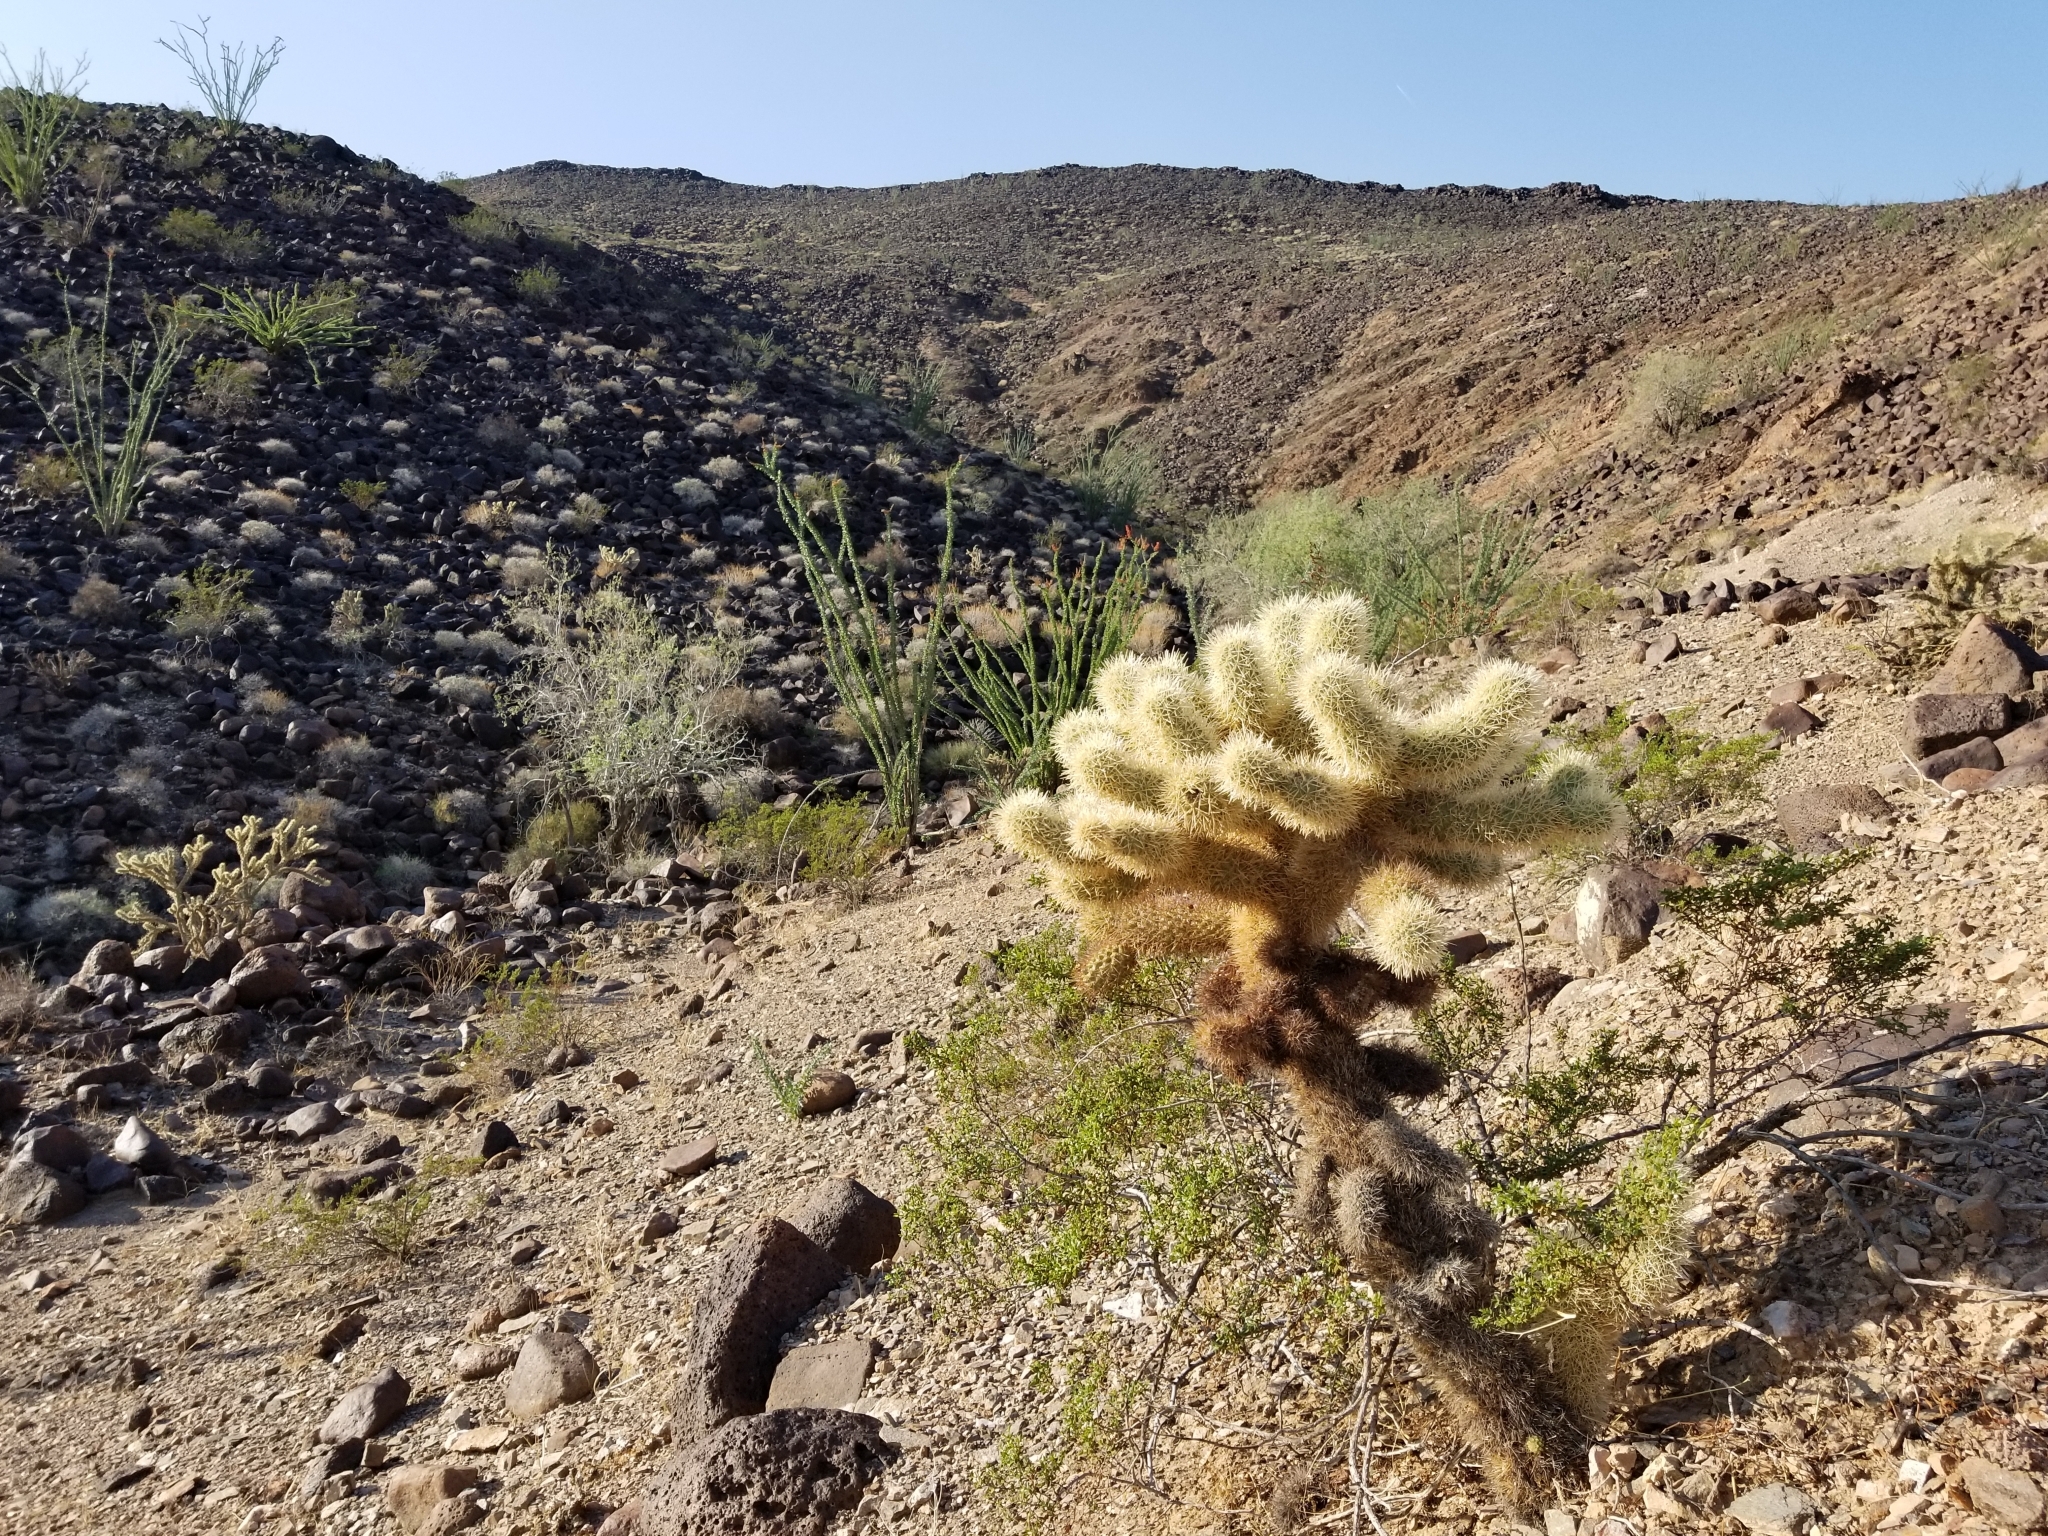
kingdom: Plantae
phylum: Tracheophyta
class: Magnoliopsida
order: Caryophyllales
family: Cactaceae
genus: Cylindropuntia
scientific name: Cylindropuntia fosbergii
